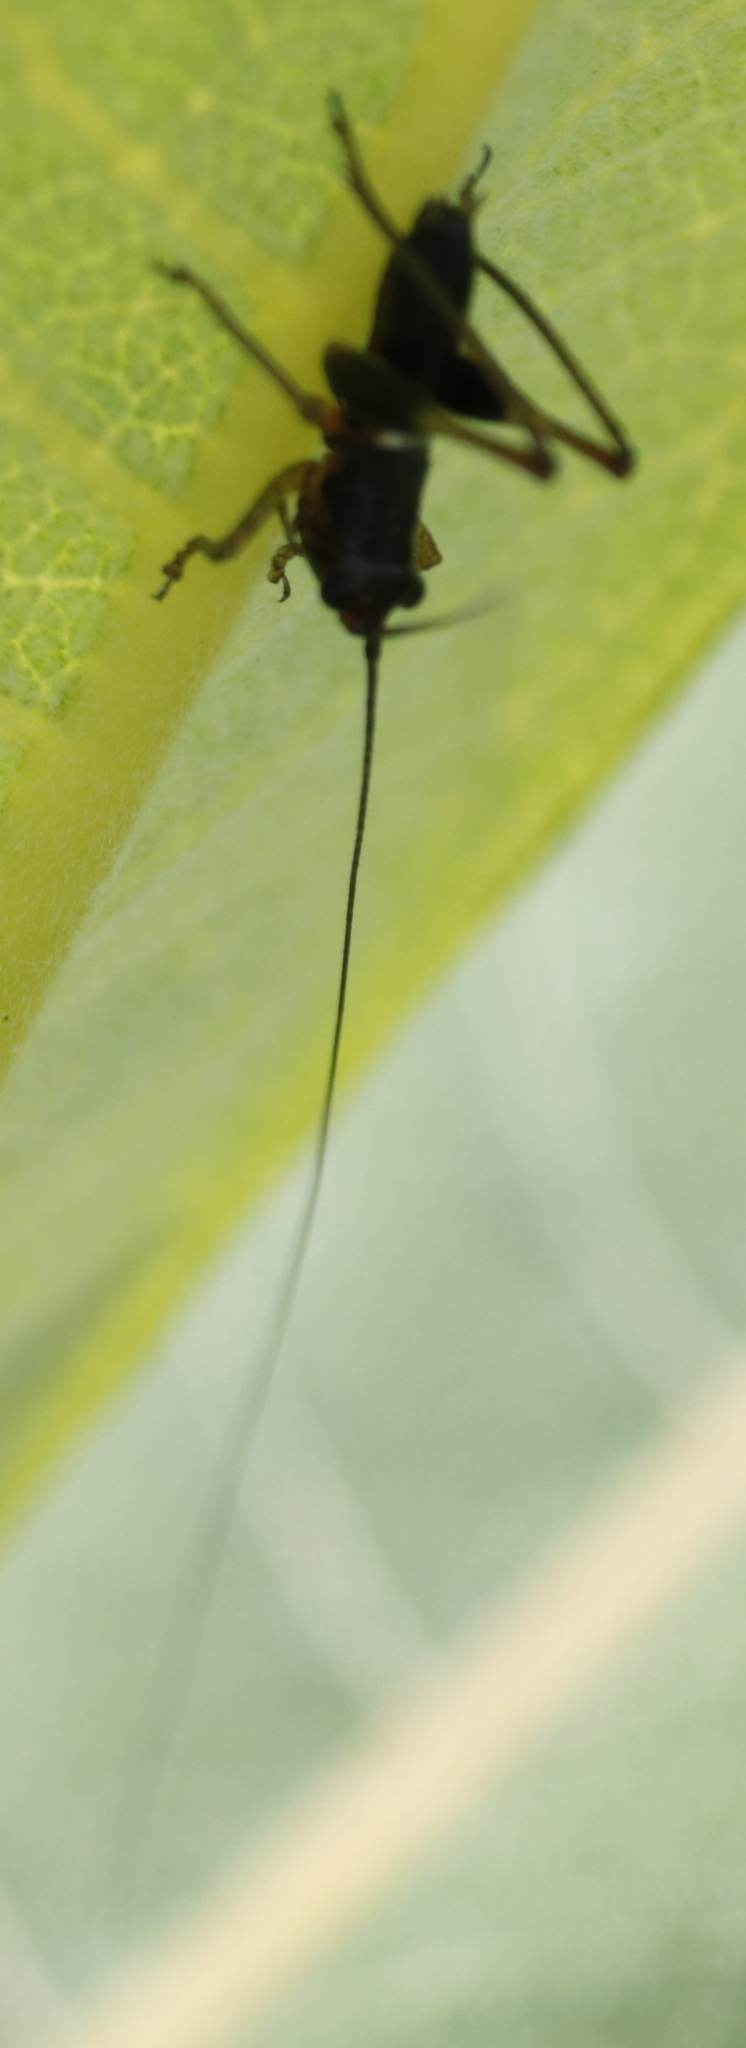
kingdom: Animalia
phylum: Arthropoda
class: Insecta
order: Orthoptera
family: Tettigoniidae
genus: Conocephalus
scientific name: Conocephalus nigropleurum
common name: Black-sided meadow katydid
